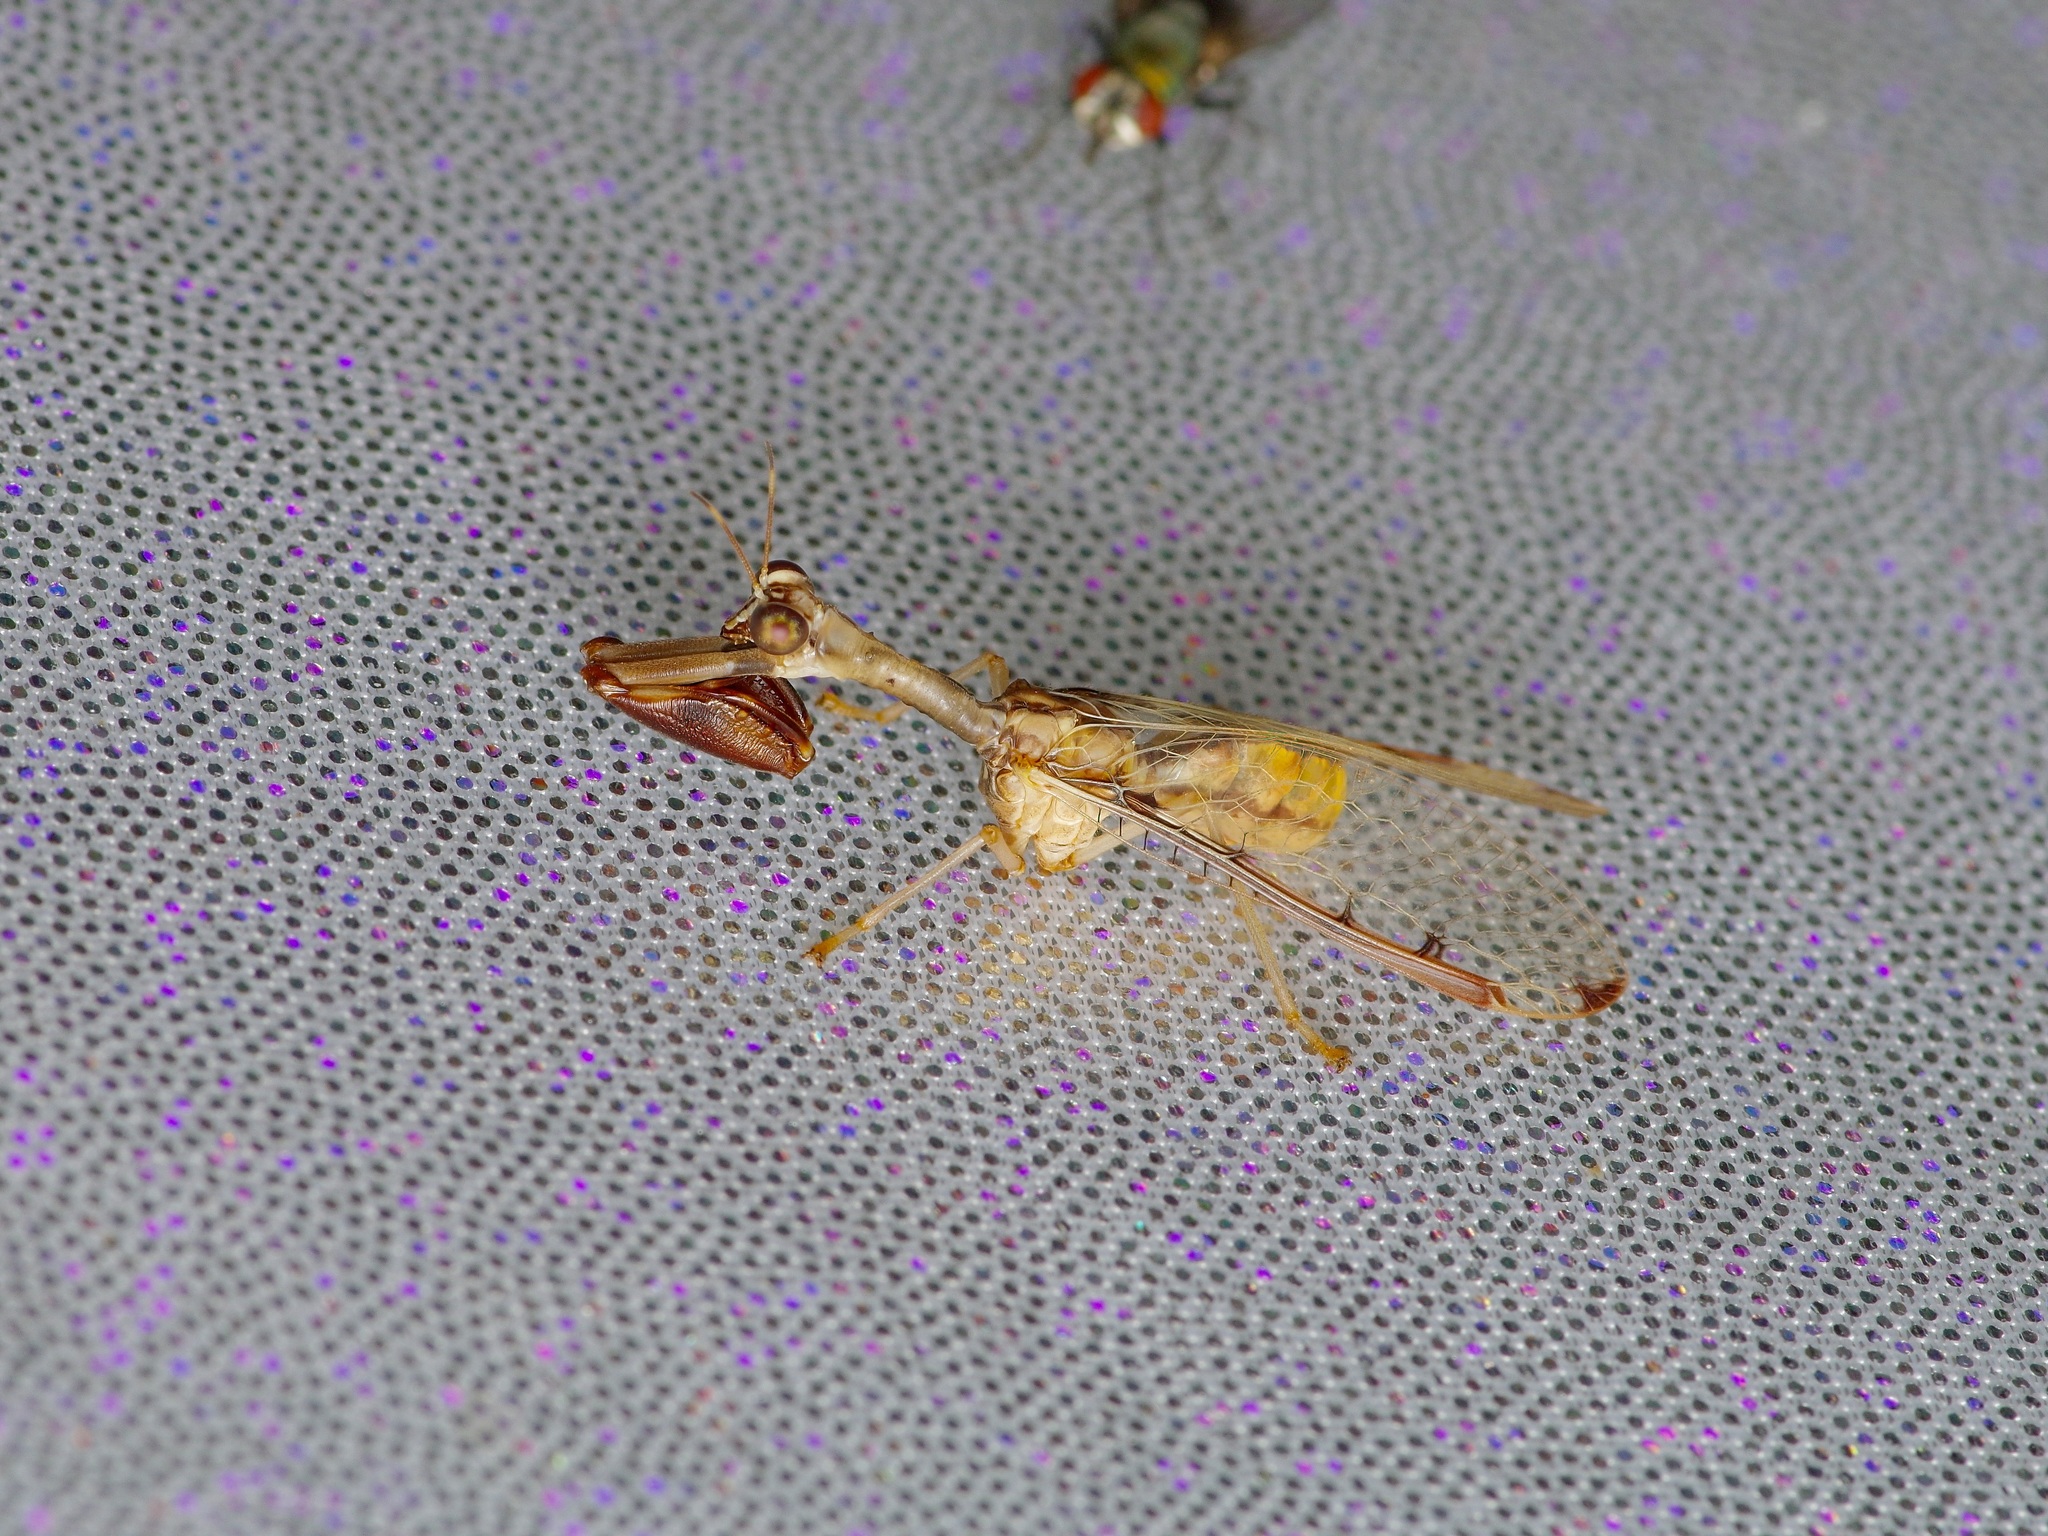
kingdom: Animalia
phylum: Arthropoda
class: Insecta
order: Neuroptera
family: Mantispidae
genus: Dicromantispa
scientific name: Dicromantispa interrupta
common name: Four-spotted mantidfly
